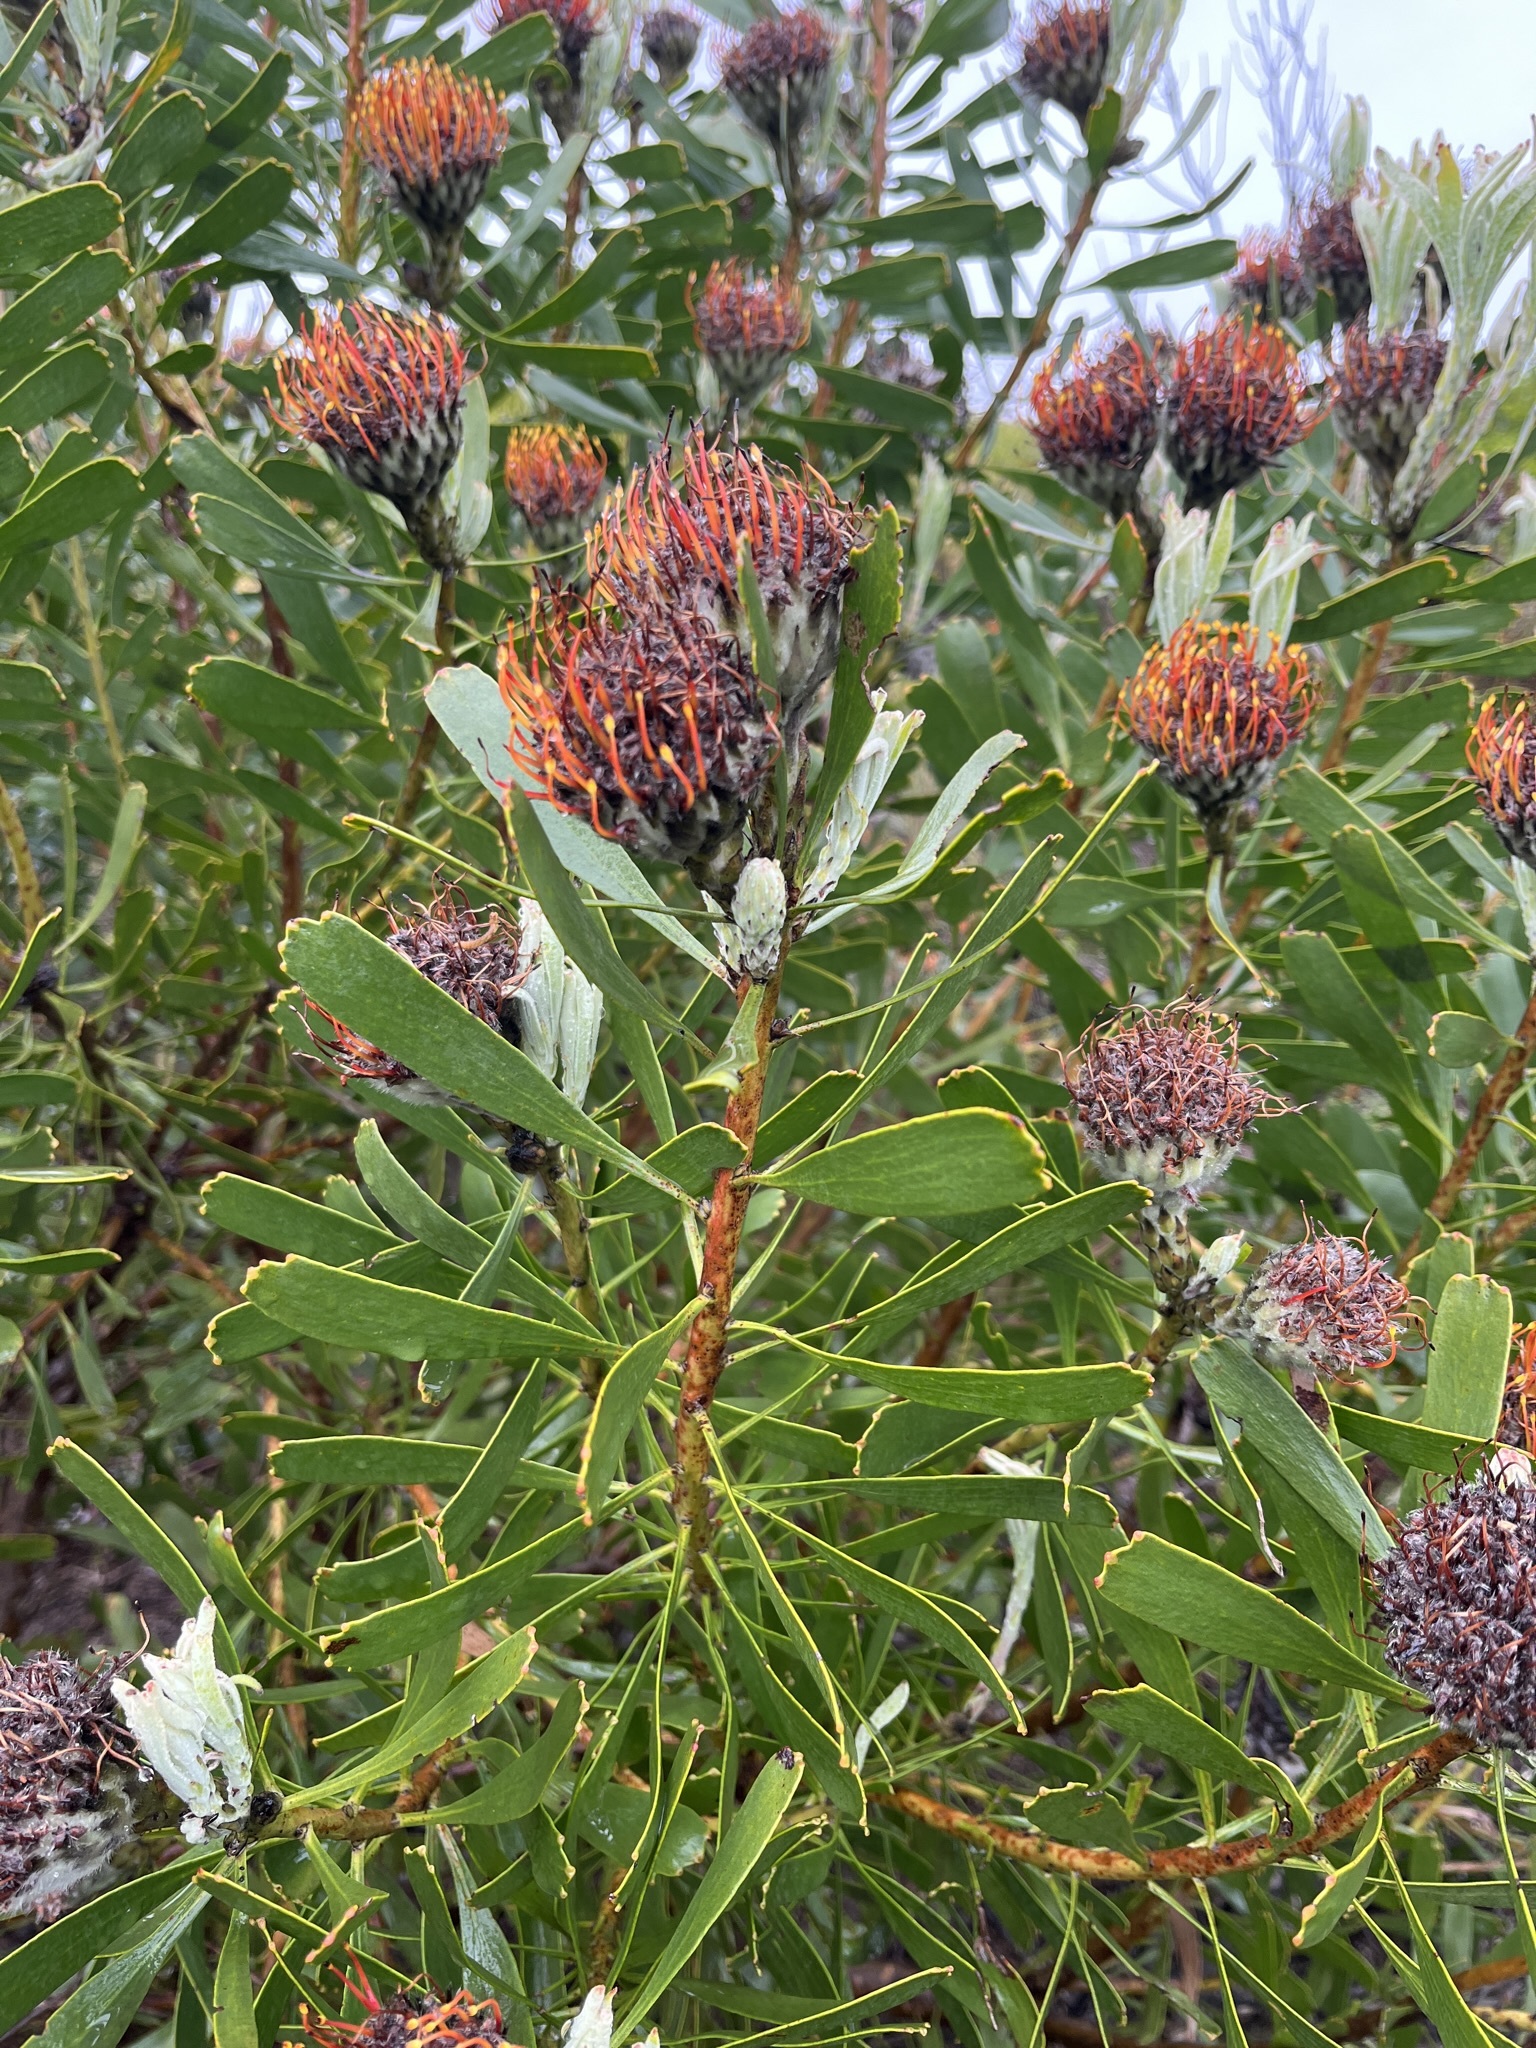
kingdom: Plantae
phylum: Tracheophyta
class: Magnoliopsida
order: Proteales
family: Proteaceae
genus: Leucospermum
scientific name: Leucospermum truncatum
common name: Limestone pincushion
